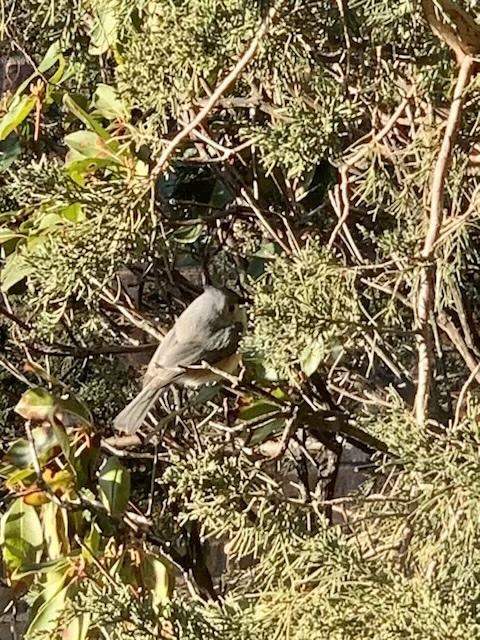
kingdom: Animalia
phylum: Chordata
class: Aves
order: Passeriformes
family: Paridae
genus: Baeolophus
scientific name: Baeolophus bicolor
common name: Tufted titmouse
